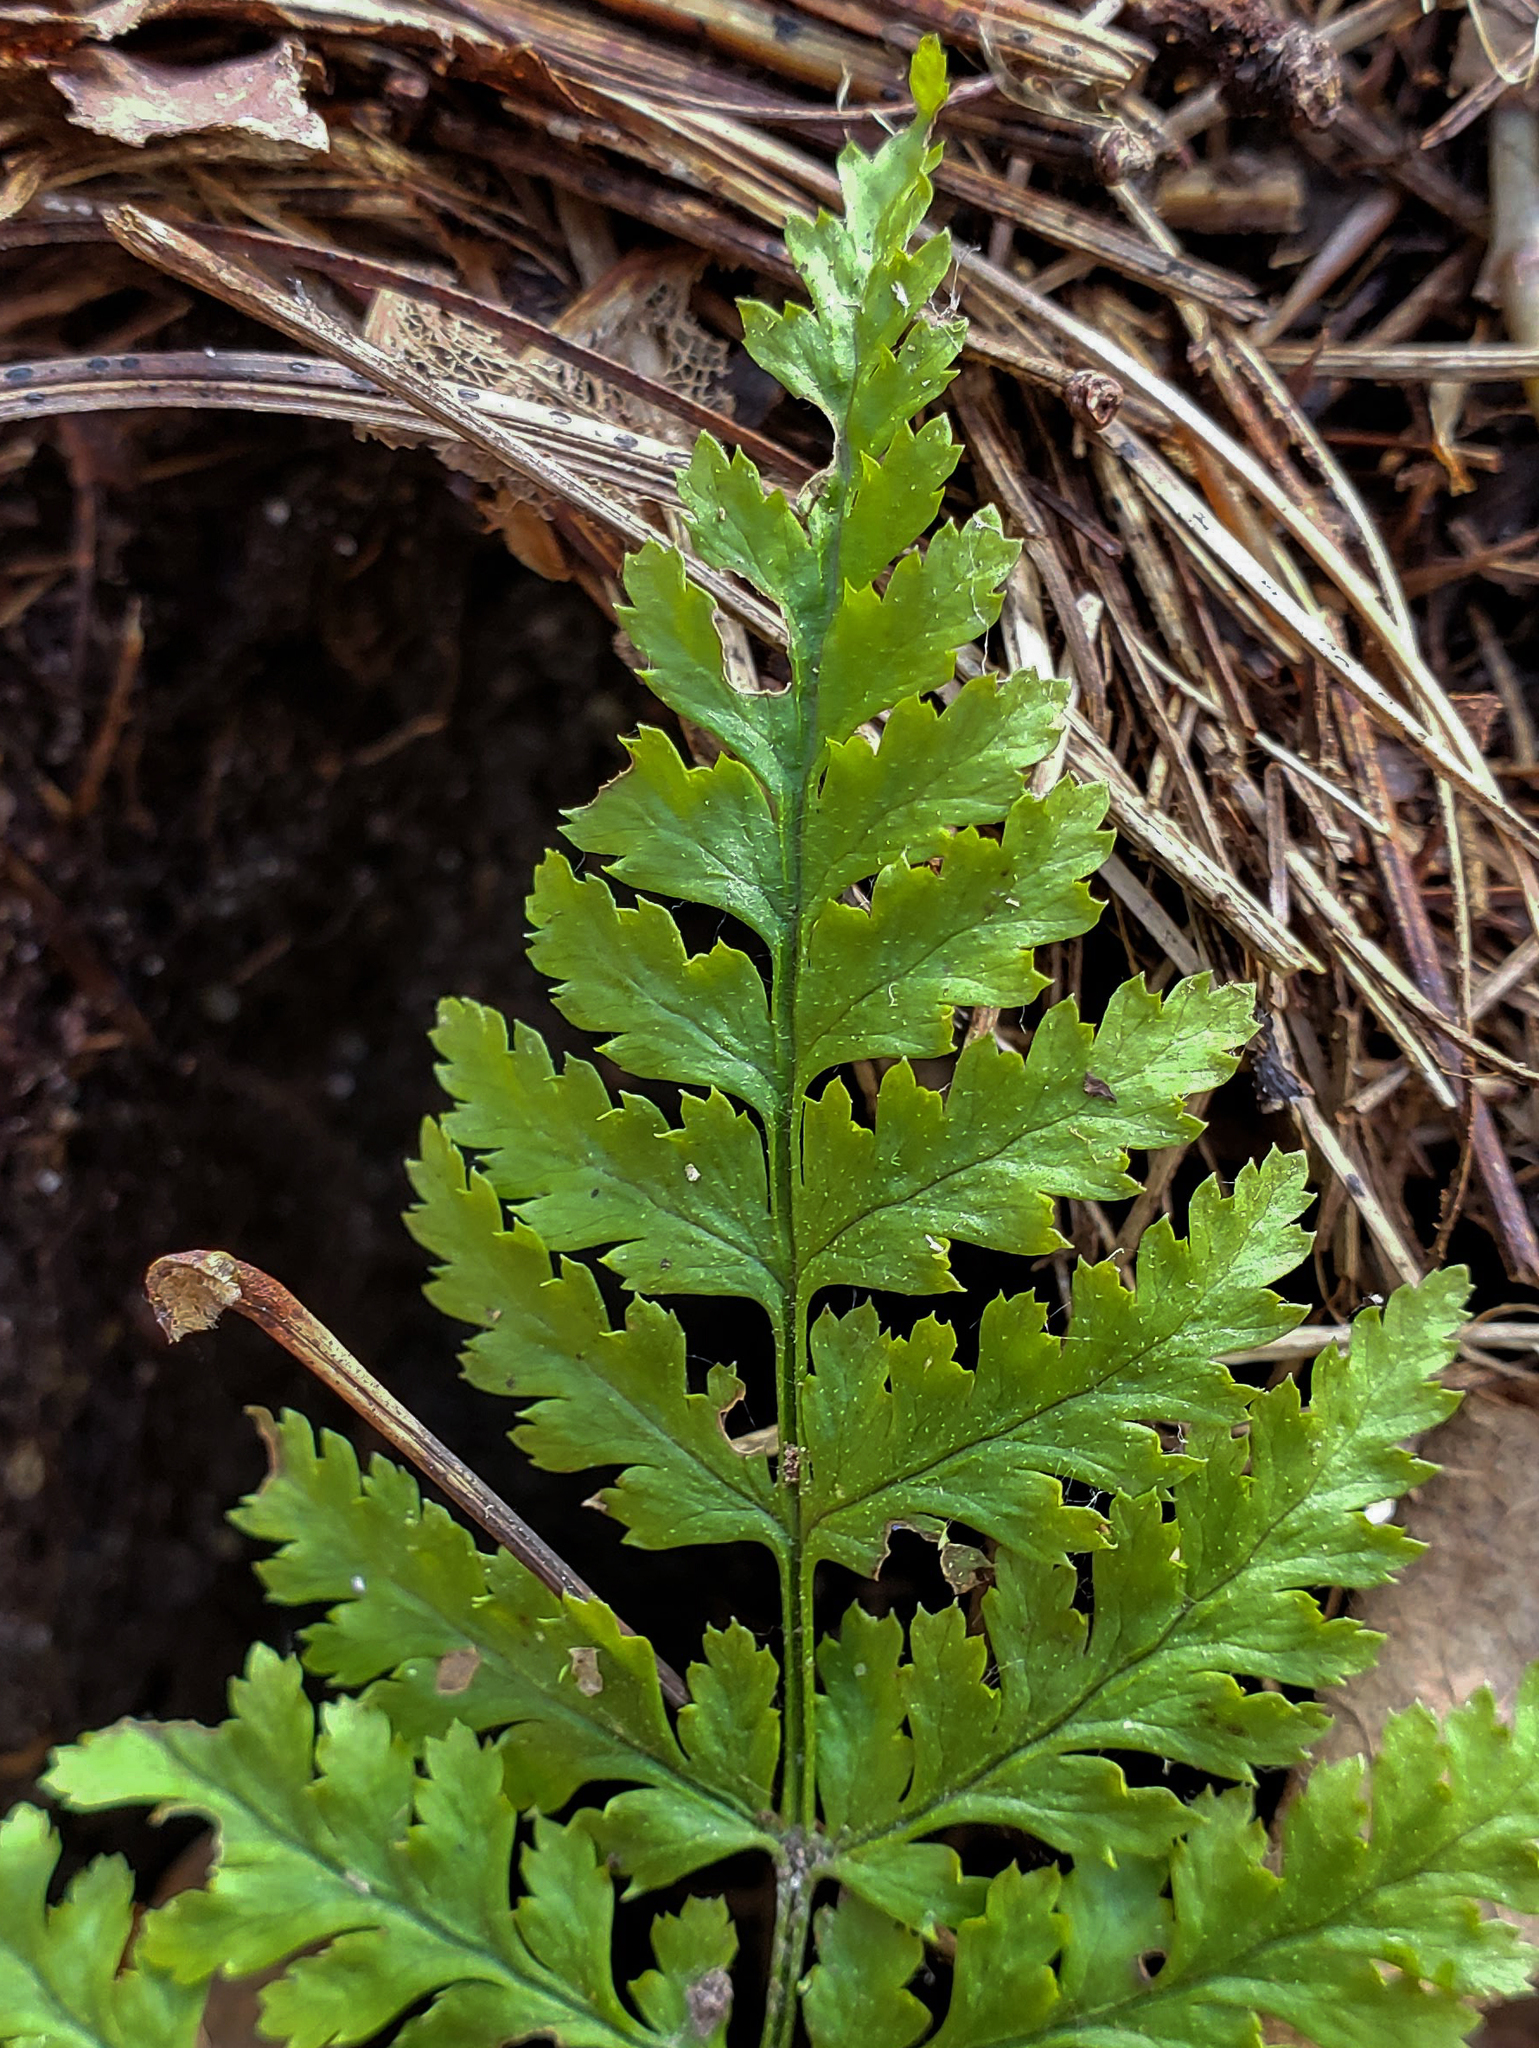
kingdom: Plantae
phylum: Tracheophyta
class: Polypodiopsida
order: Polypodiales
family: Dryopteridaceae
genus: Dryopteris
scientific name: Dryopteris intermedia
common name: Evergreen wood fern
